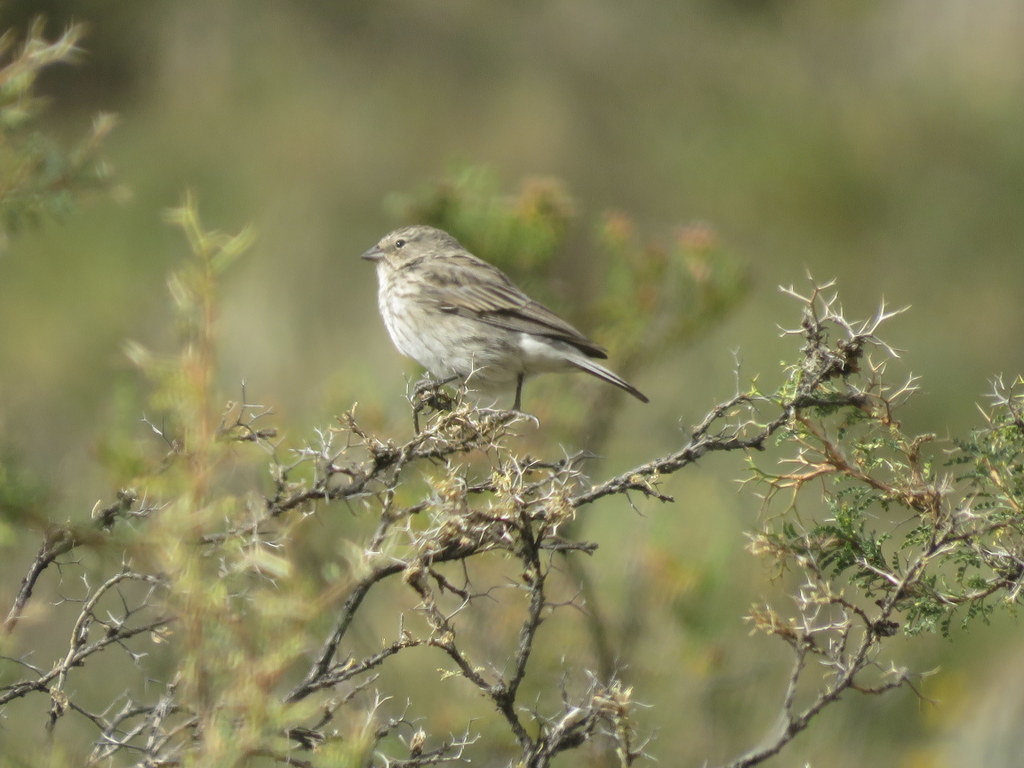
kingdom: Animalia
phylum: Chordata
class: Aves
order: Passeriformes
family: Thraupidae
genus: Geospizopsis
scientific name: Geospizopsis plebejus
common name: Ash-breasted sierra-finch
